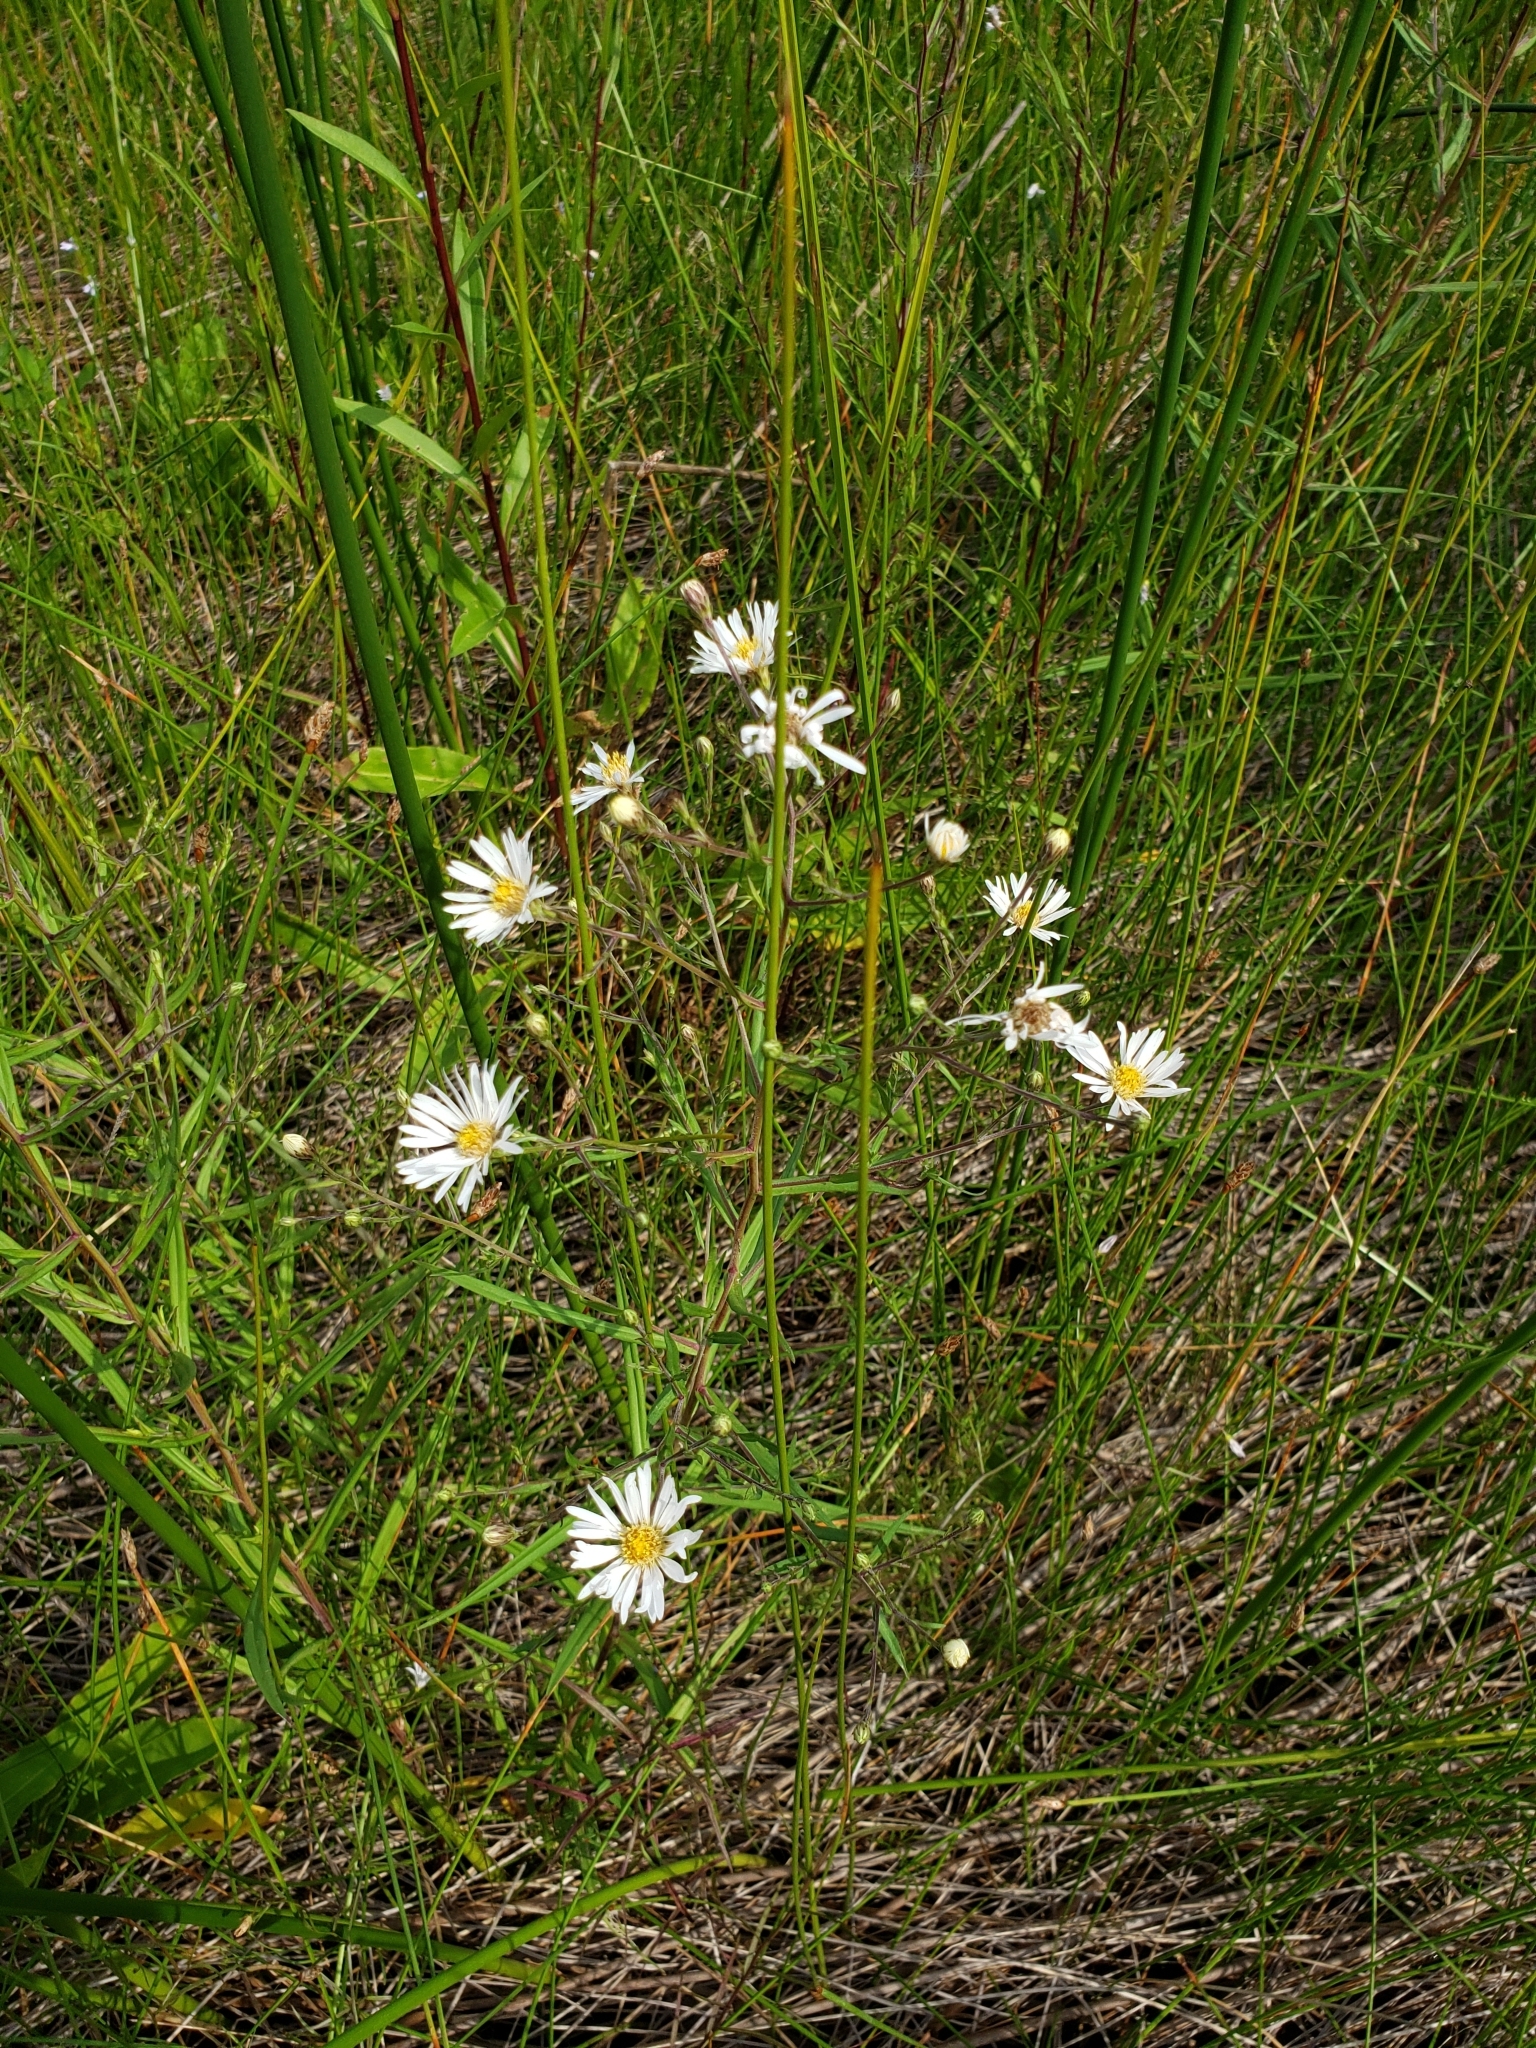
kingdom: Plantae
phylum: Tracheophyta
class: Magnoliopsida
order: Asterales
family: Asteraceae
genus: Symphyotrichum
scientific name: Symphyotrichum boreale
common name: Northern bog aster
